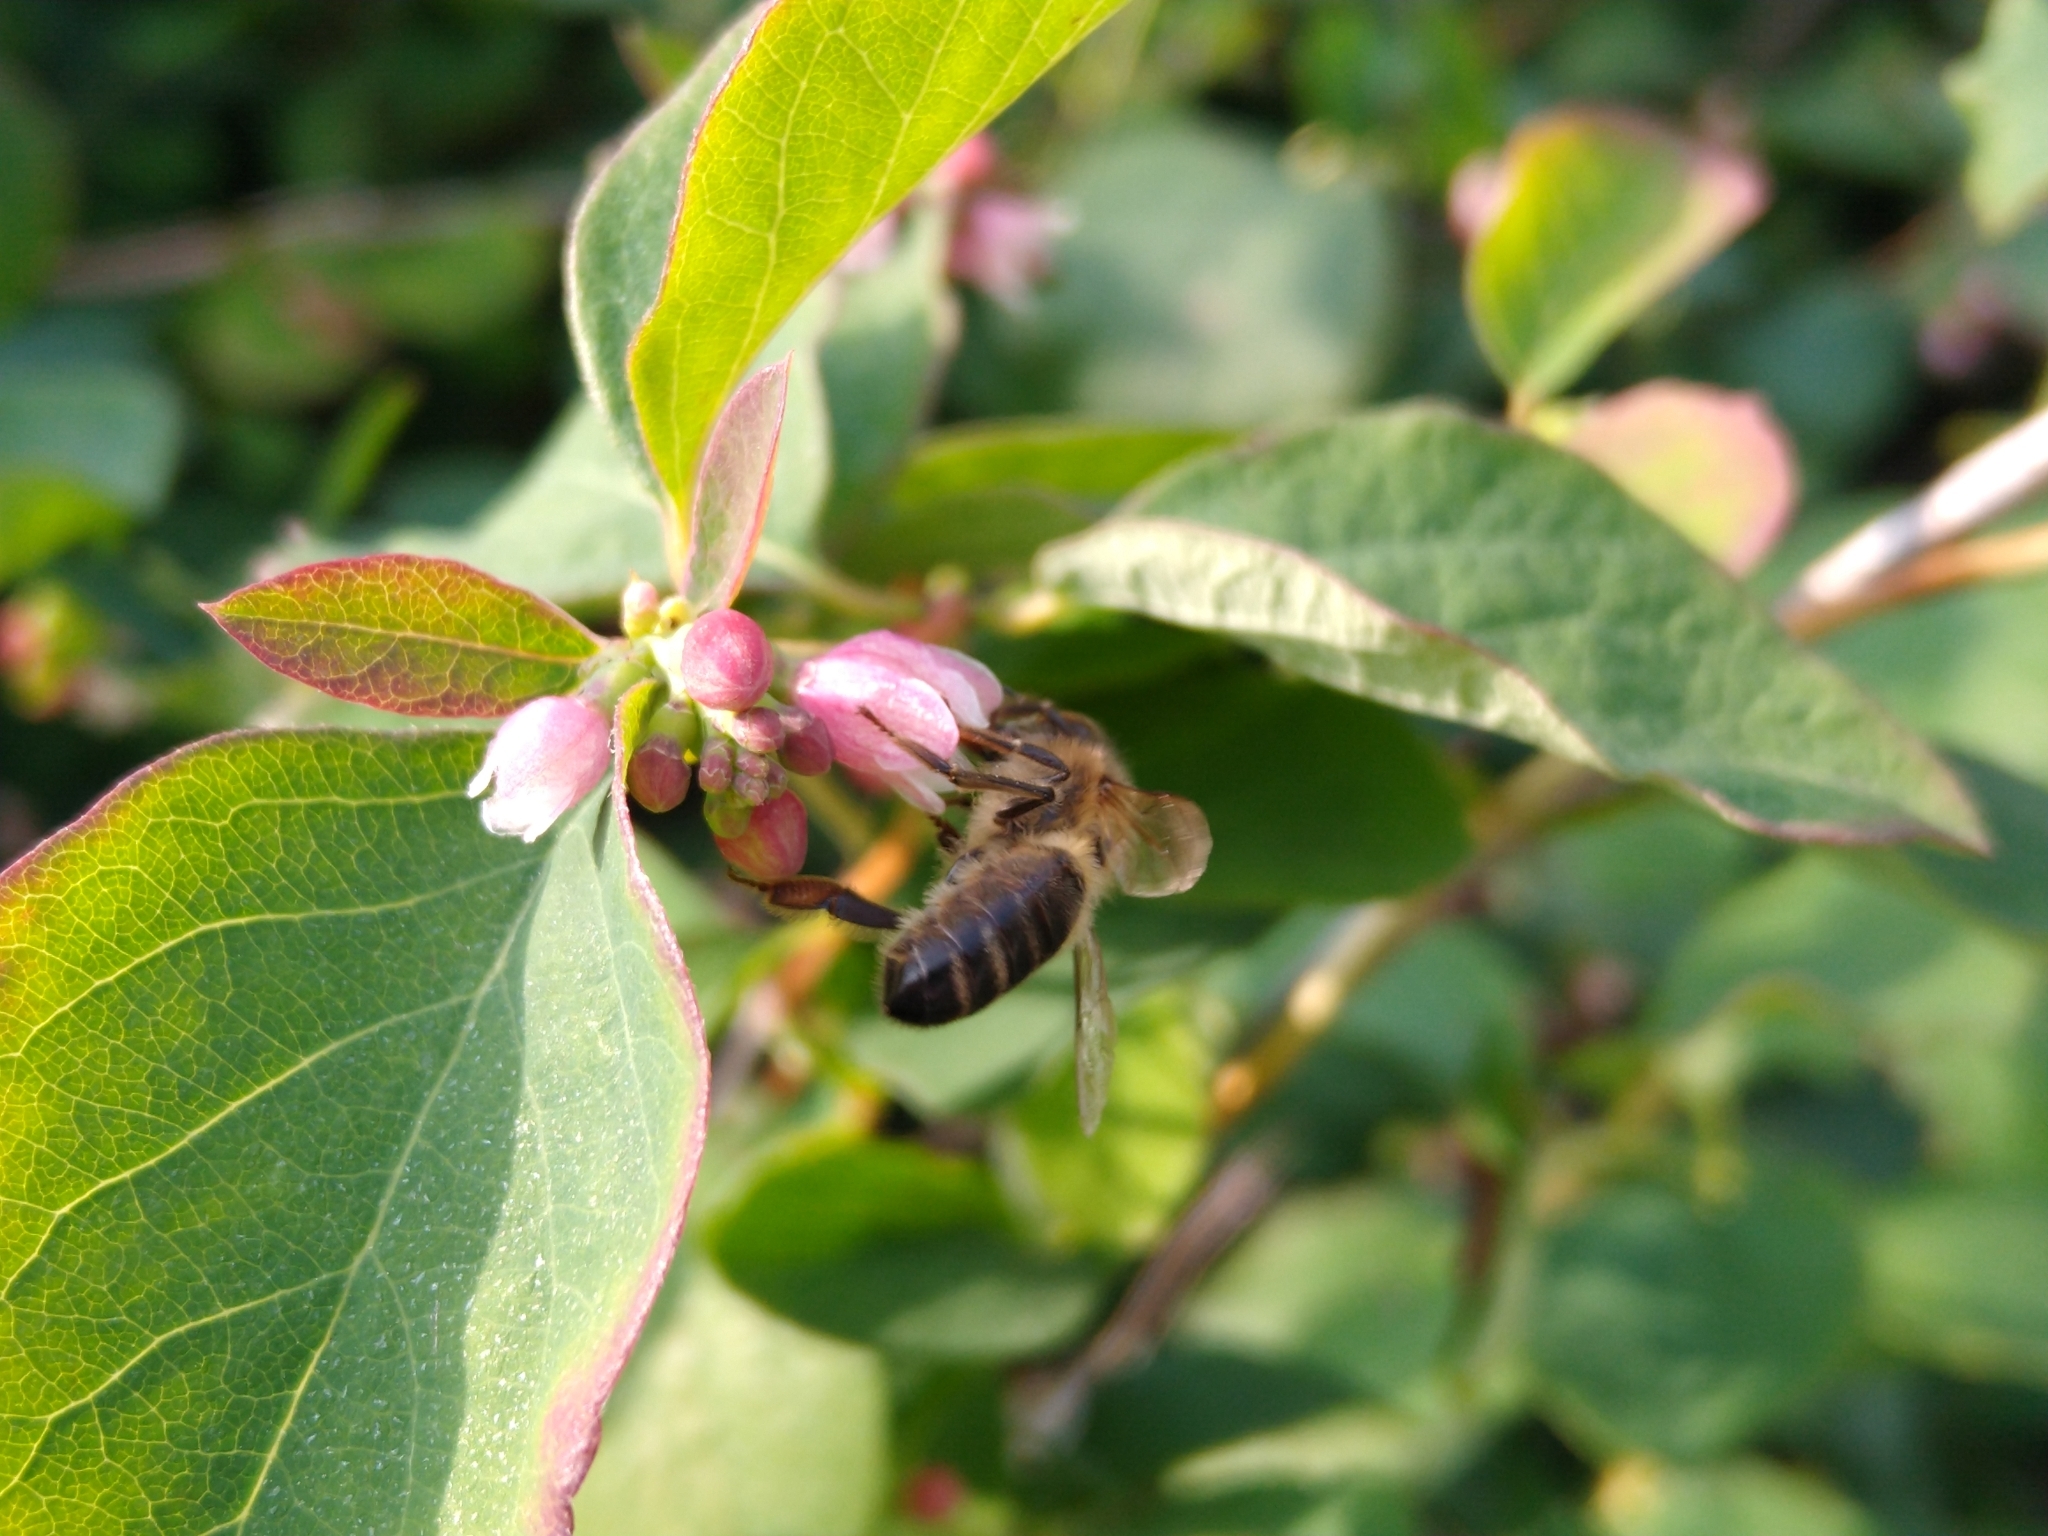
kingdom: Animalia
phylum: Arthropoda
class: Insecta
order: Hymenoptera
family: Apidae
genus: Apis
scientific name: Apis mellifera
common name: Honey bee
